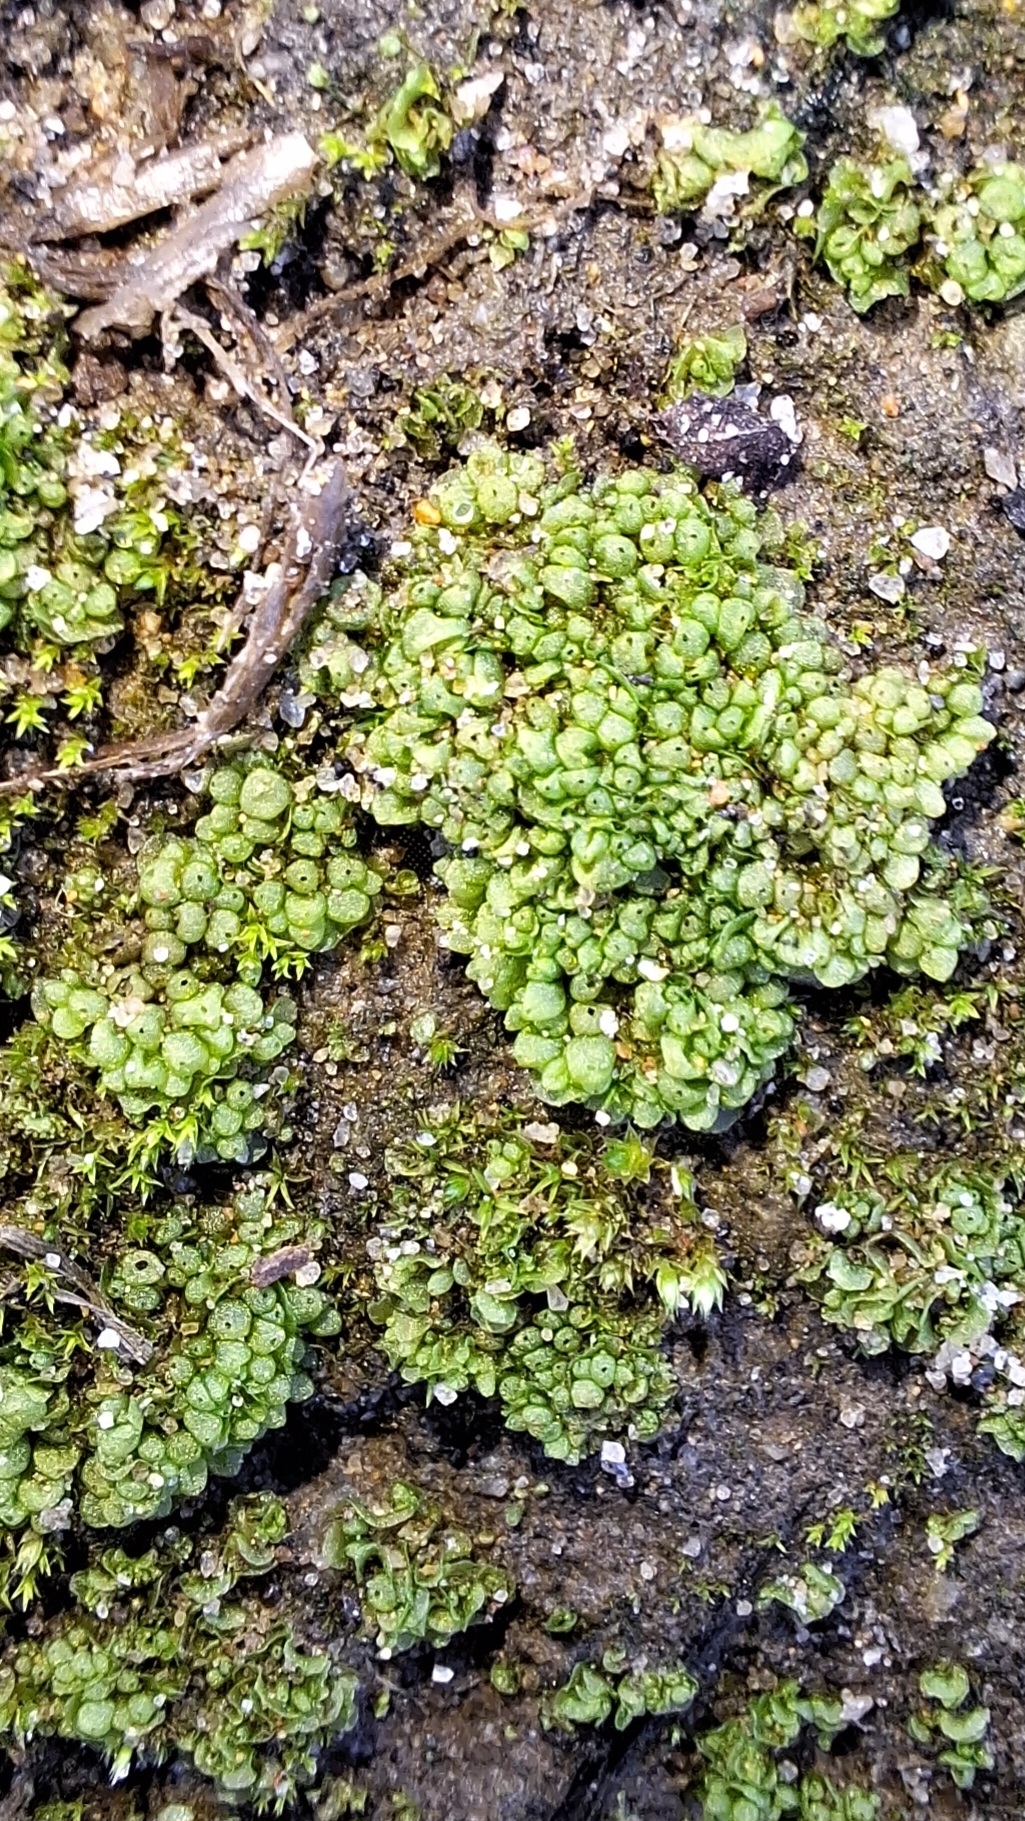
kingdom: Plantae
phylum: Marchantiophyta
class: Marchantiopsida
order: Sphaerocarpales
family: Sphaerocarpaceae
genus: Sphaerocarpos
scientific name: Sphaerocarpos texanus
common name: Texas balloonwort
